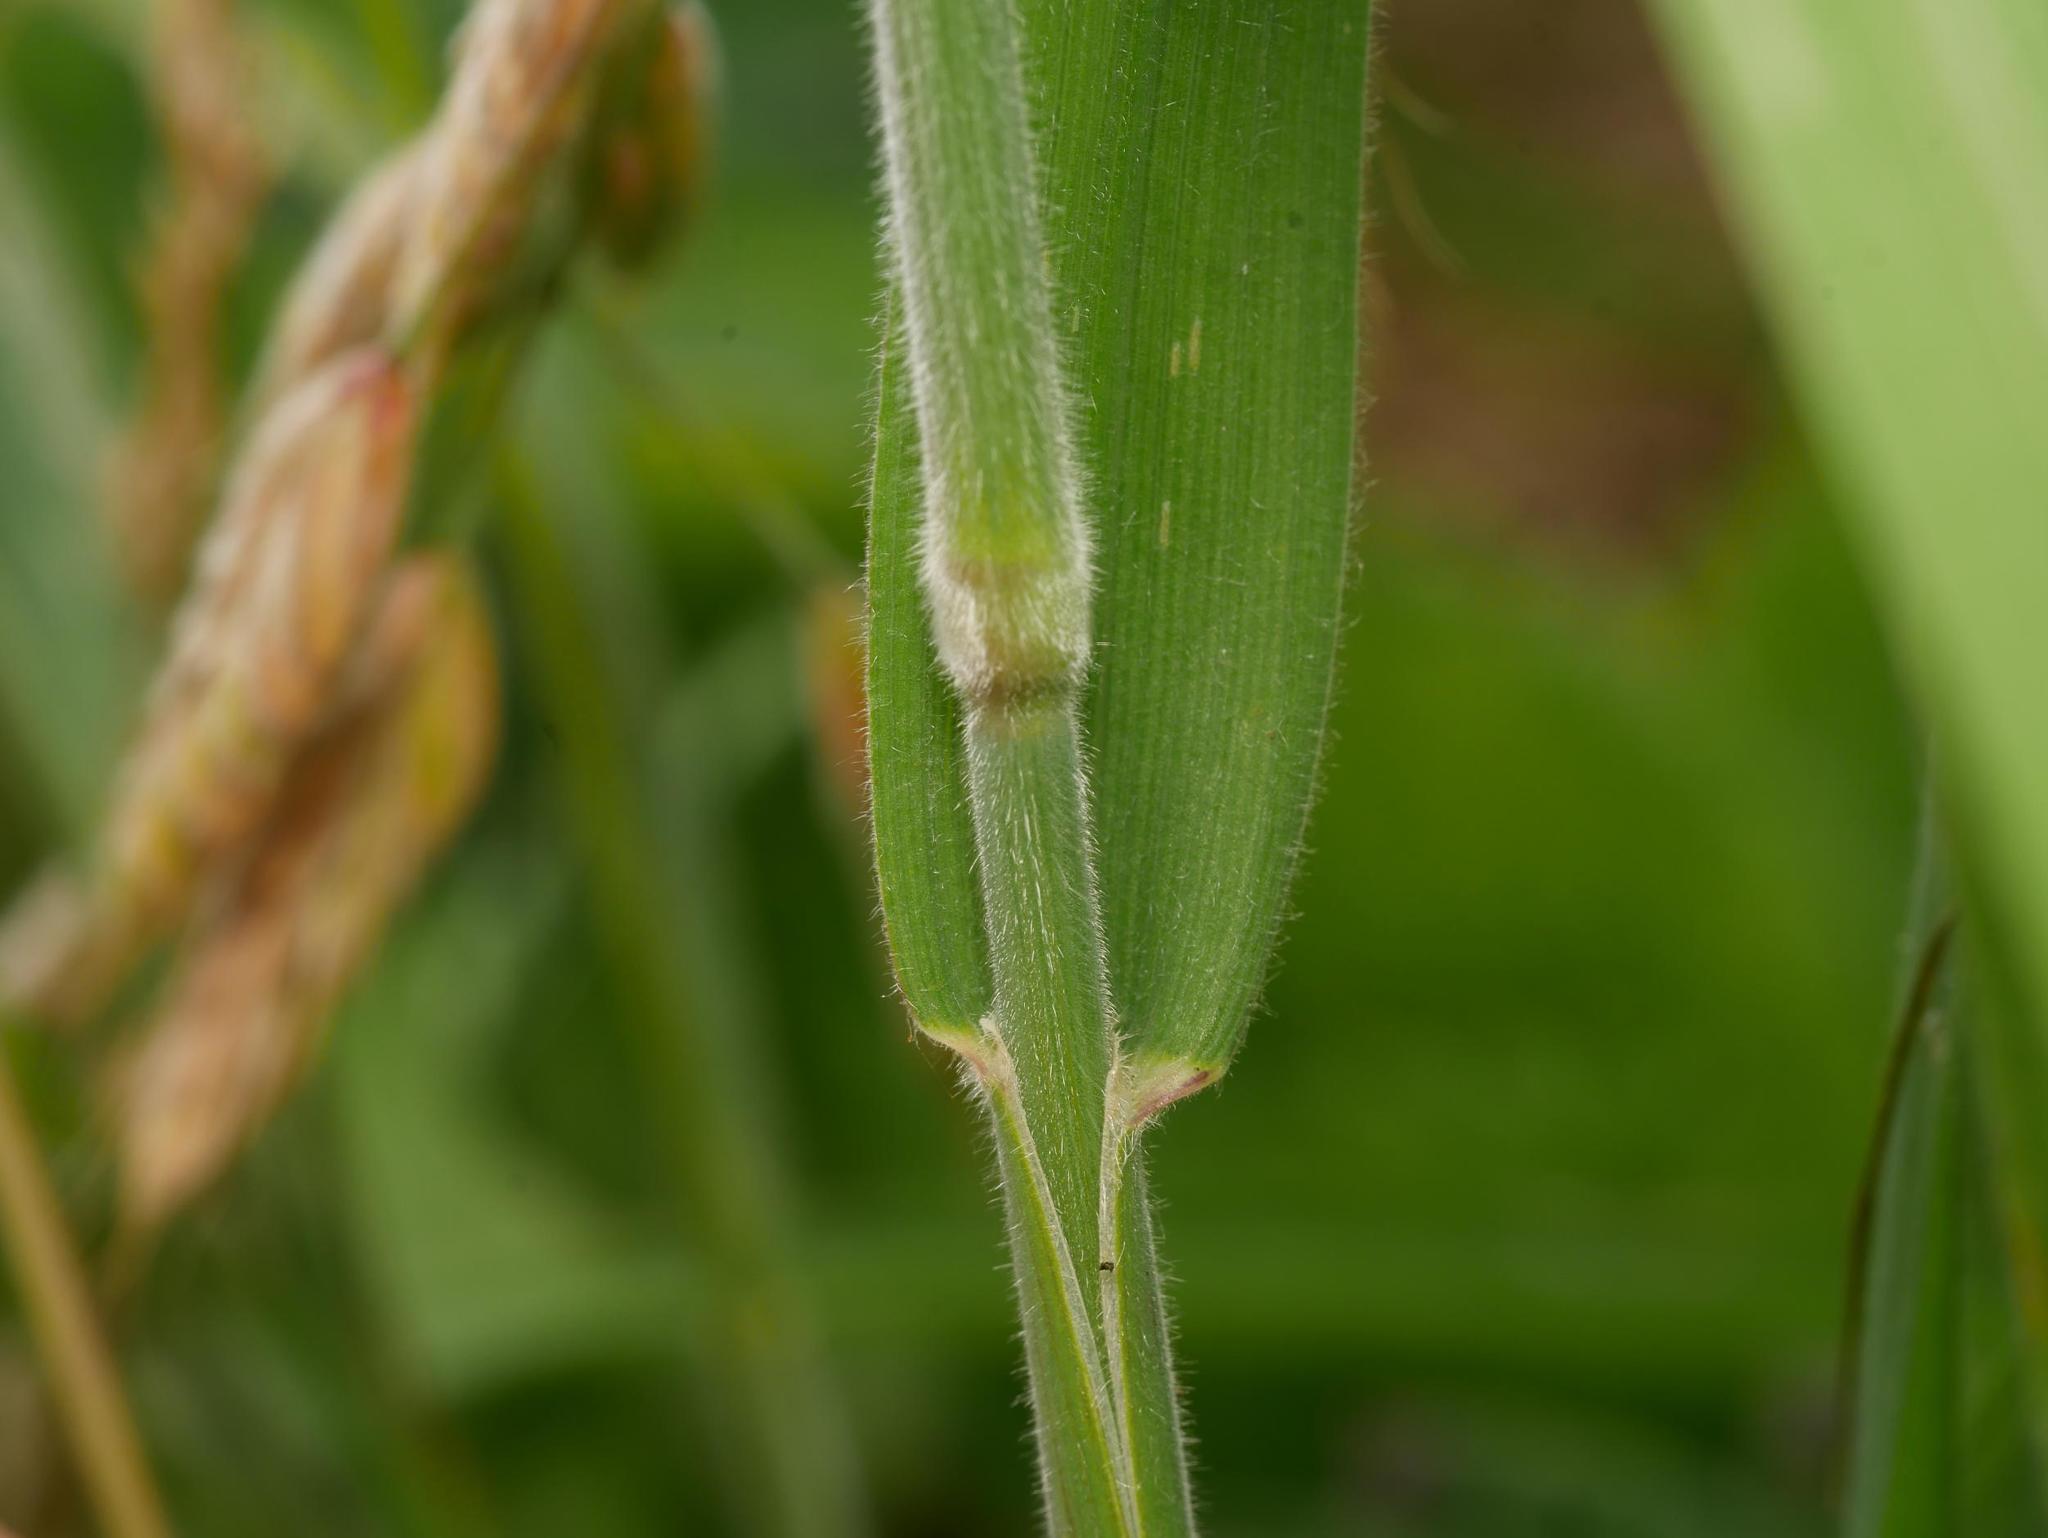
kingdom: Plantae
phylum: Tracheophyta
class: Liliopsida
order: Poales
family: Poaceae
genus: Holcus
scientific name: Holcus lanatus
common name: Yorkshire-fog
